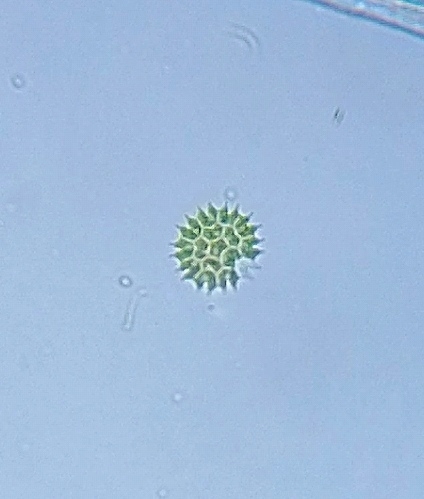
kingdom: Plantae
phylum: Chlorophyta
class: Chlorophyceae
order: Sphaeropleales
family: Hydrodictyaceae
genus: Pseudopediastrum
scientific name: Pseudopediastrum boryanum
